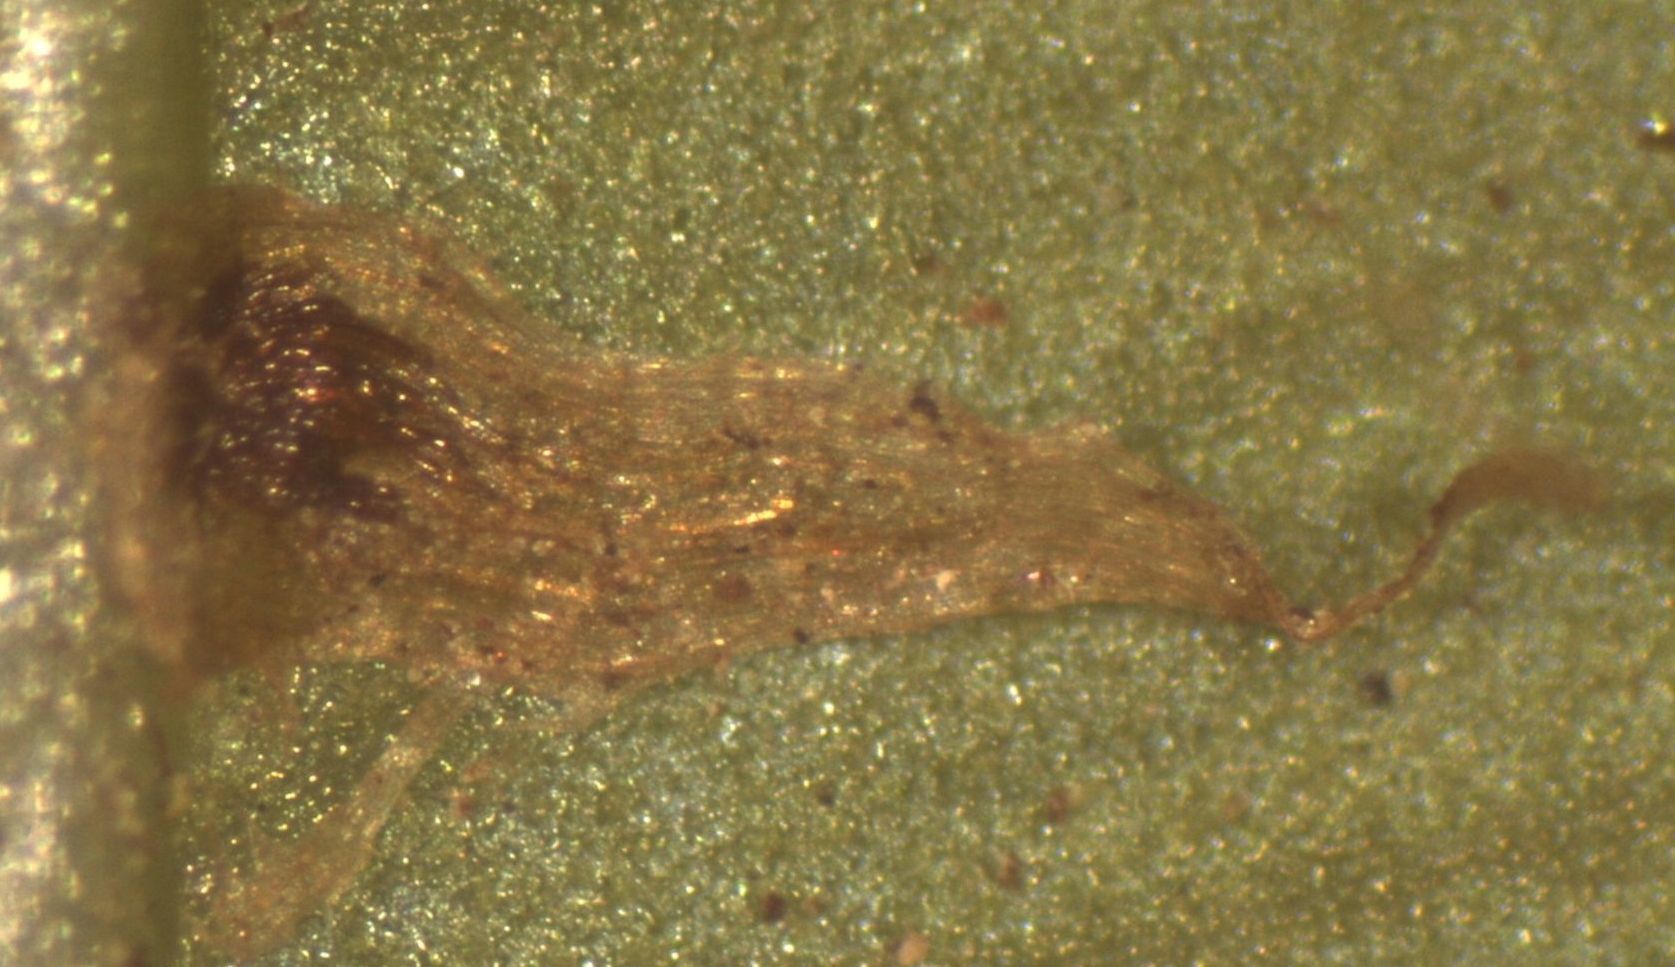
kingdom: Plantae
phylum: Tracheophyta
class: Polypodiopsida
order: Polypodiales
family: Blechnaceae
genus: Parablechnum
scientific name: Parablechnum novae-zelandiae
